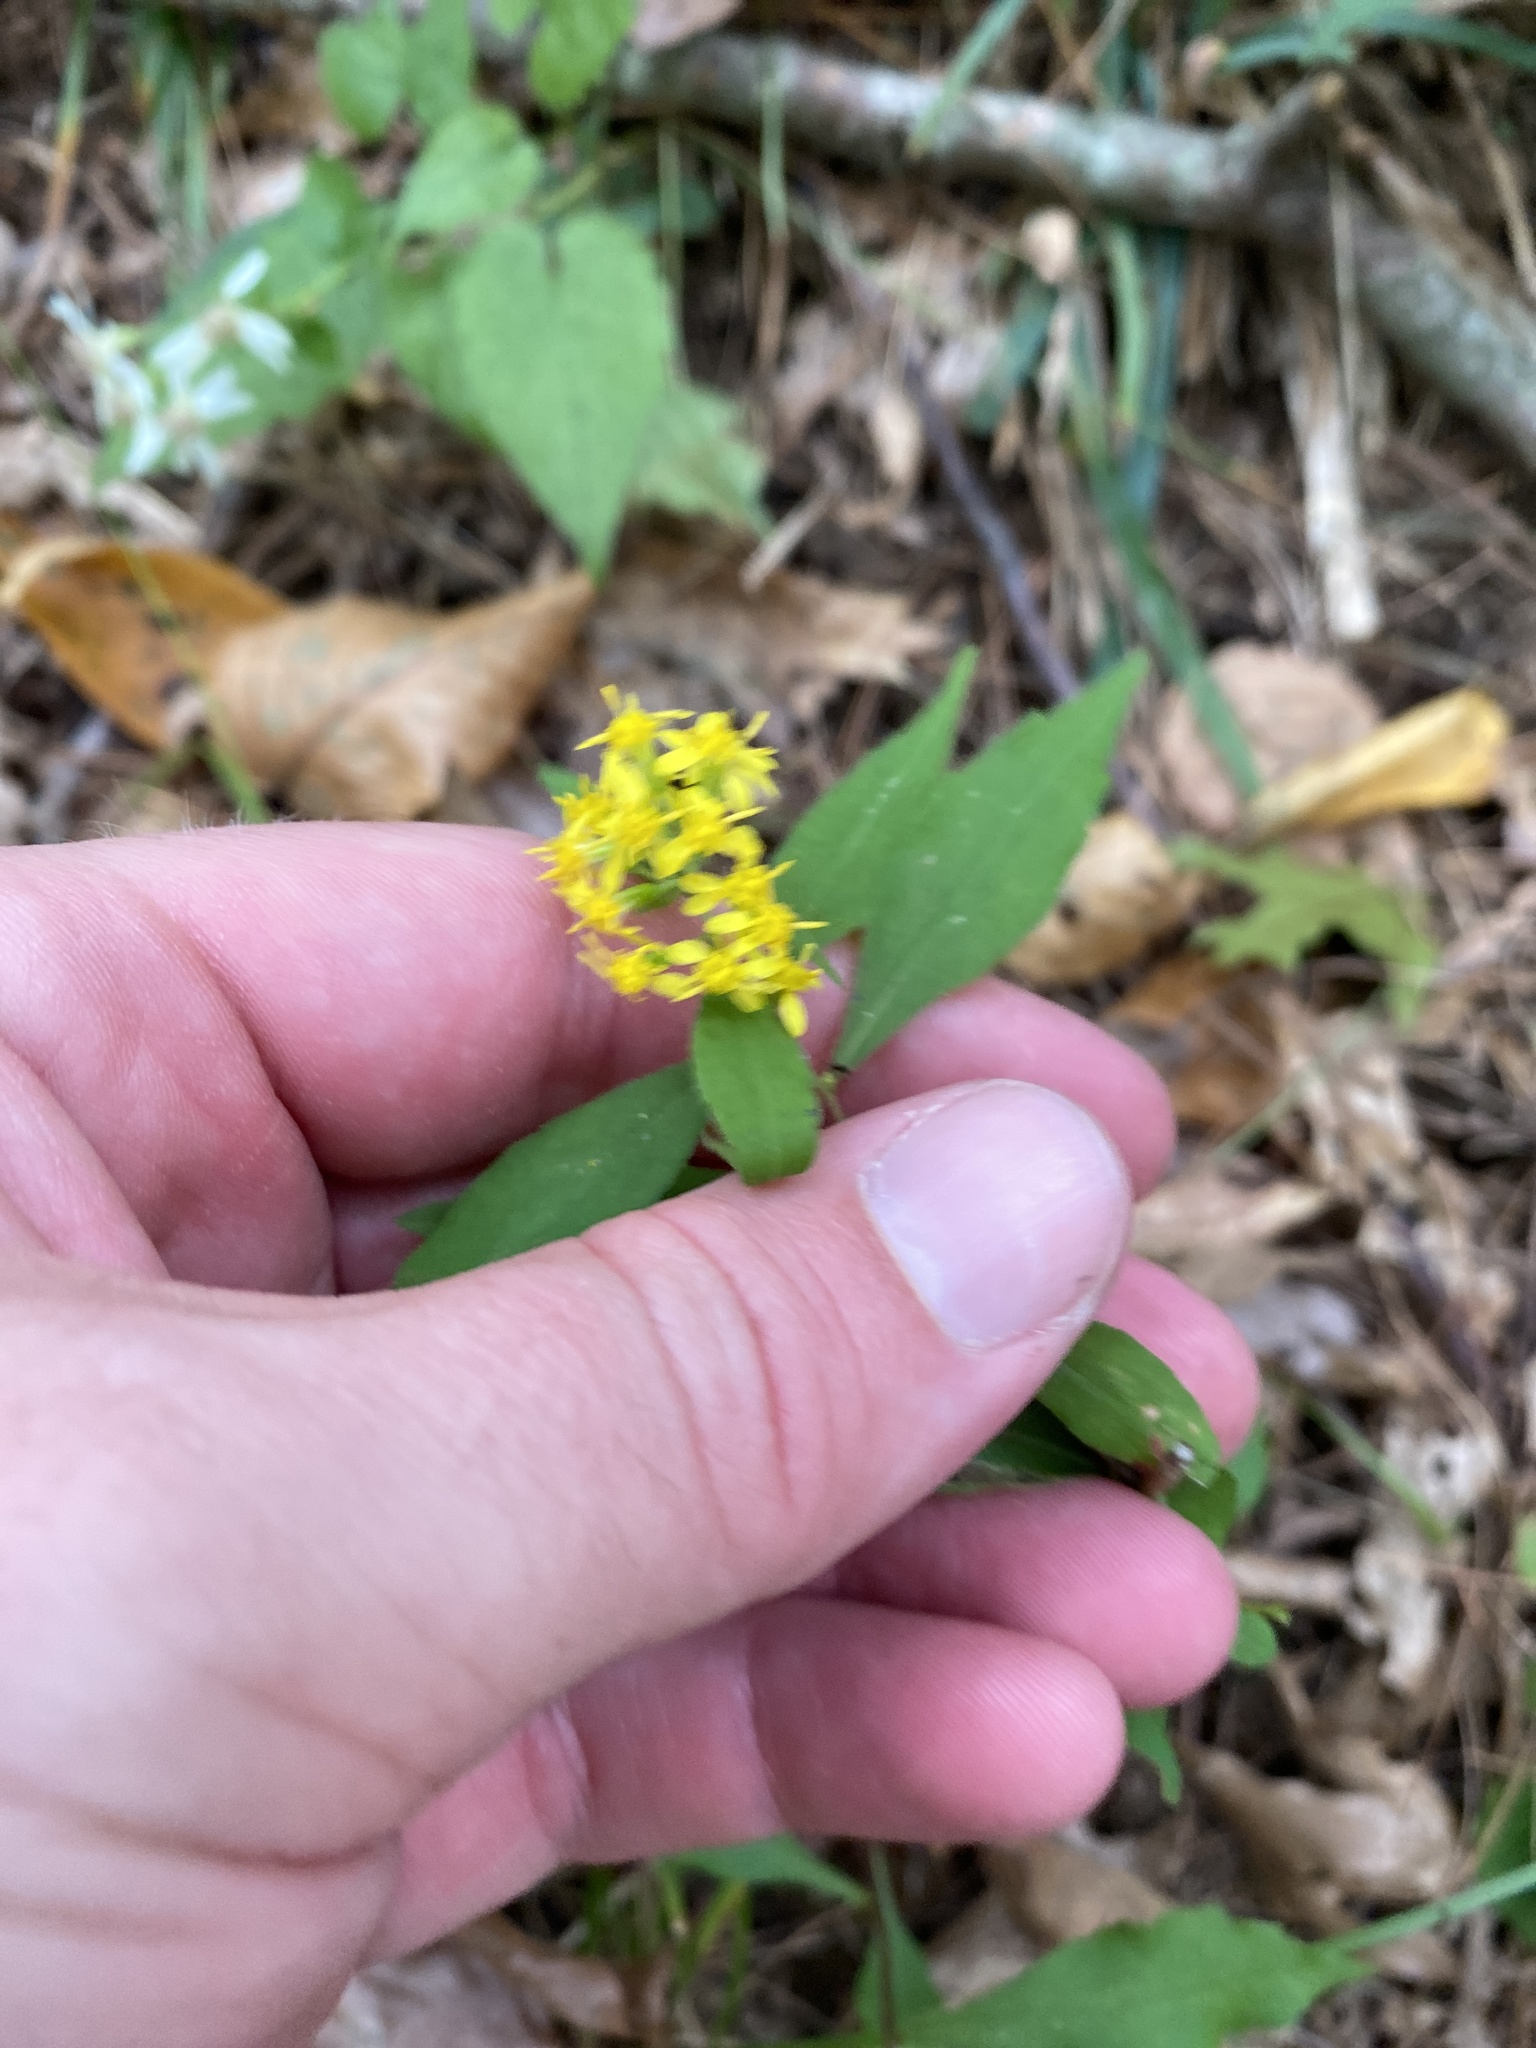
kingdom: Plantae
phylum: Tracheophyta
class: Magnoliopsida
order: Asterales
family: Asteraceae
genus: Solidago
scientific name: Solidago caesia
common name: Woodland goldenrod
